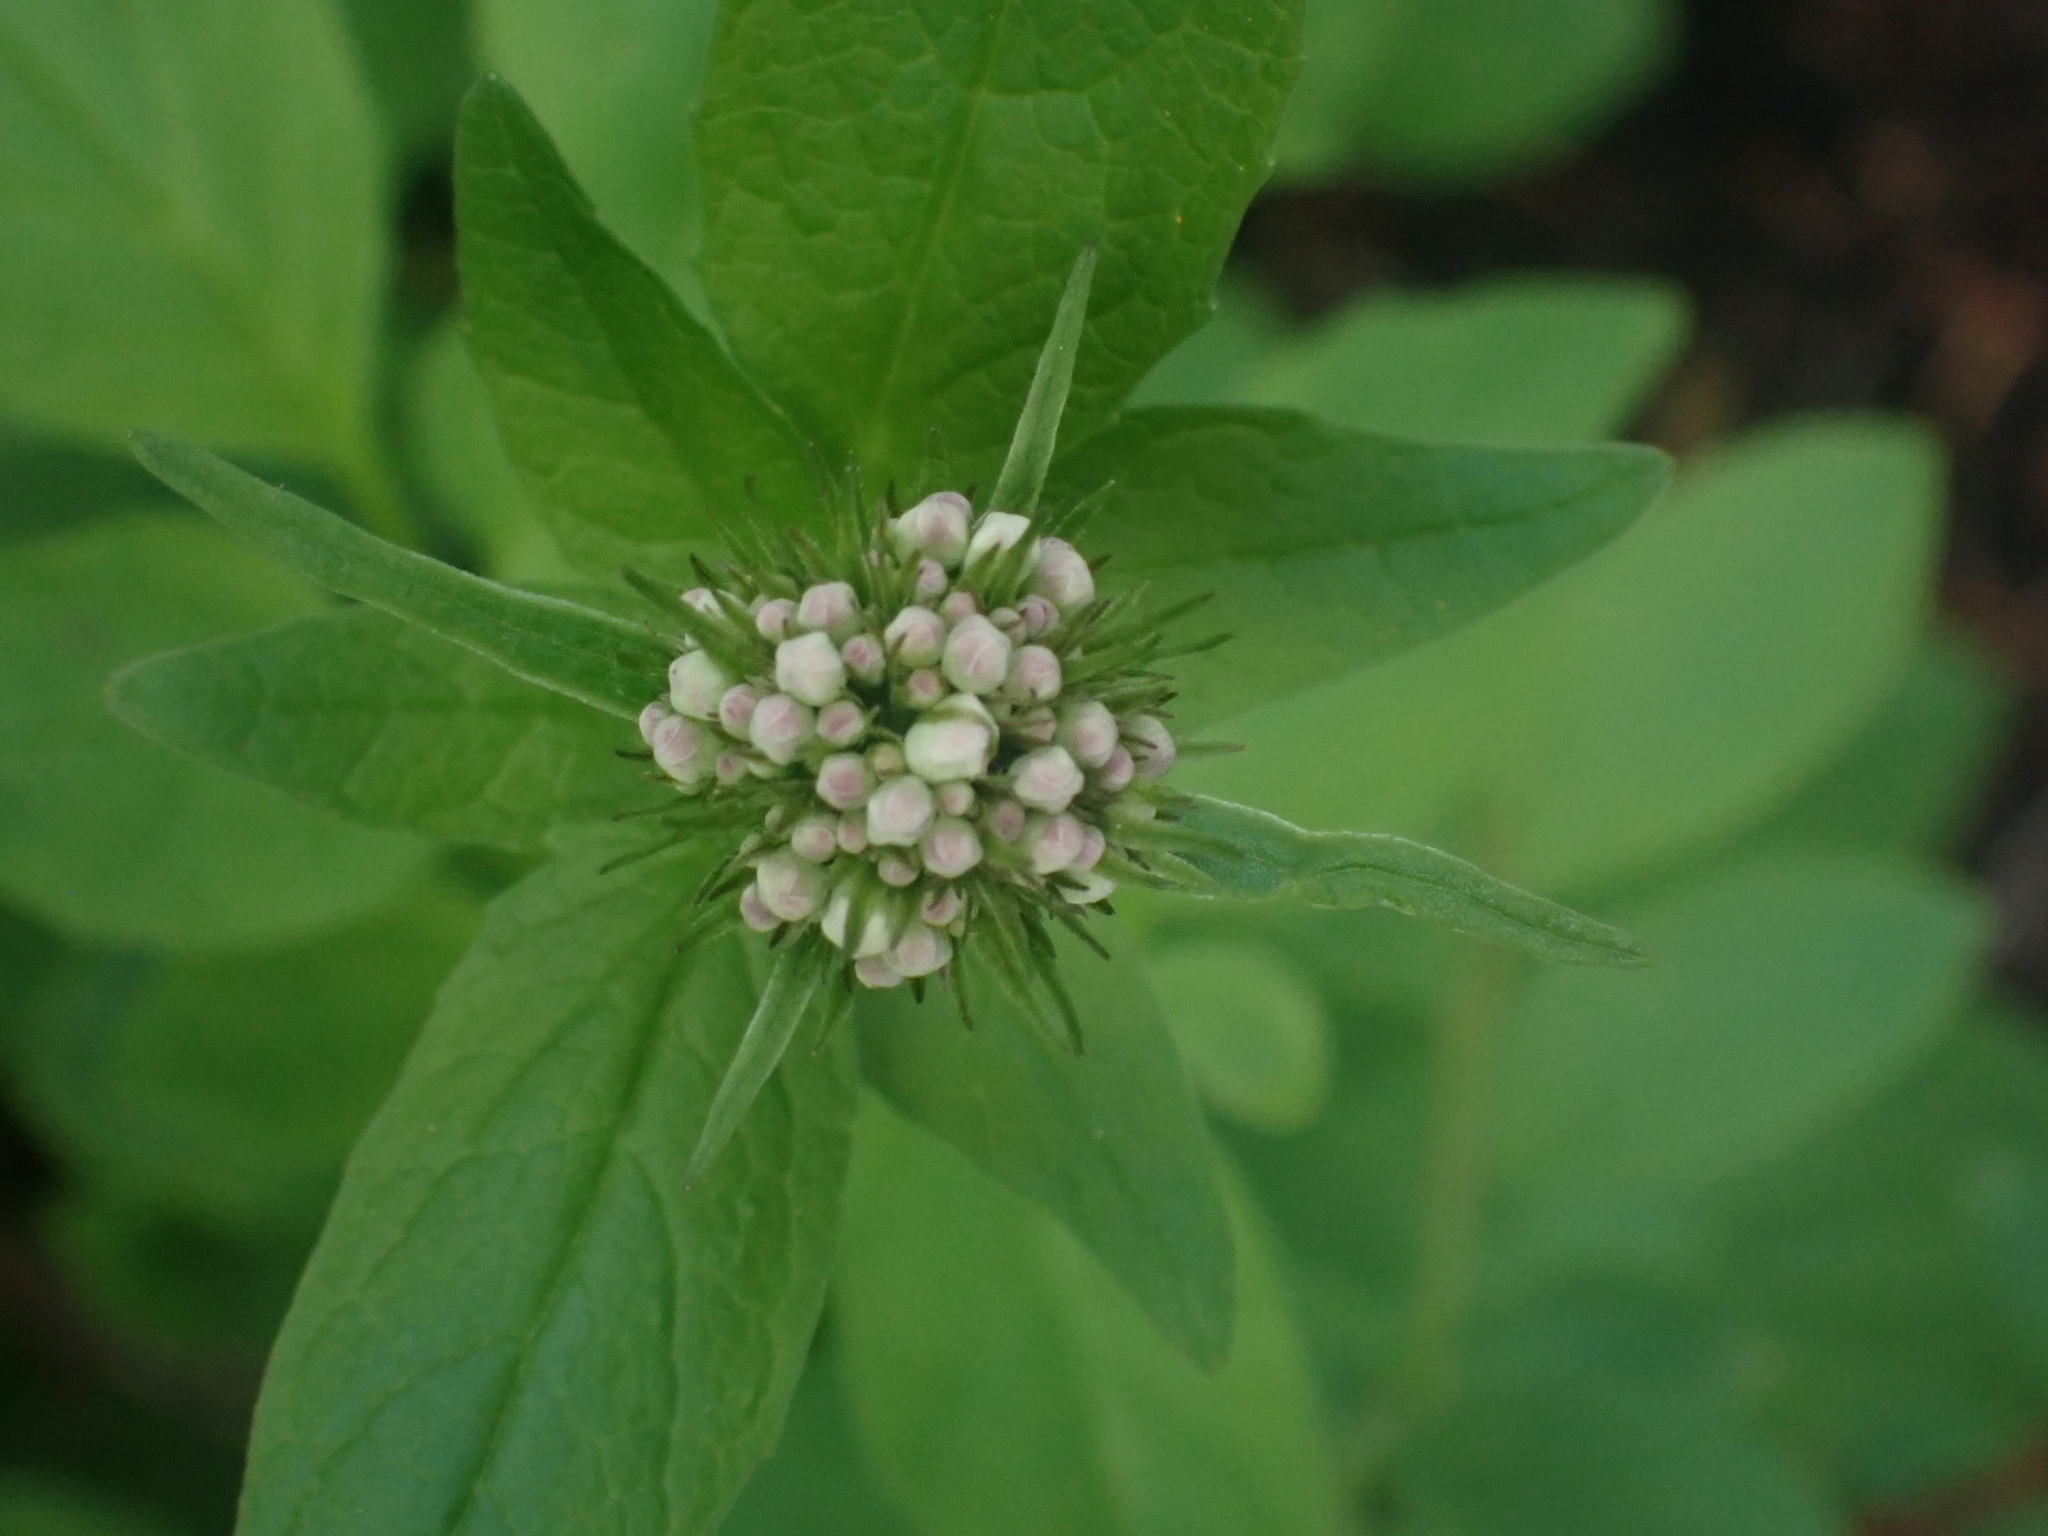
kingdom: Plantae
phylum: Tracheophyta
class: Magnoliopsida
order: Dipsacales
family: Caprifoliaceae
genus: Valeriana
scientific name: Valeriana sitchensis
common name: Pacific valerian
